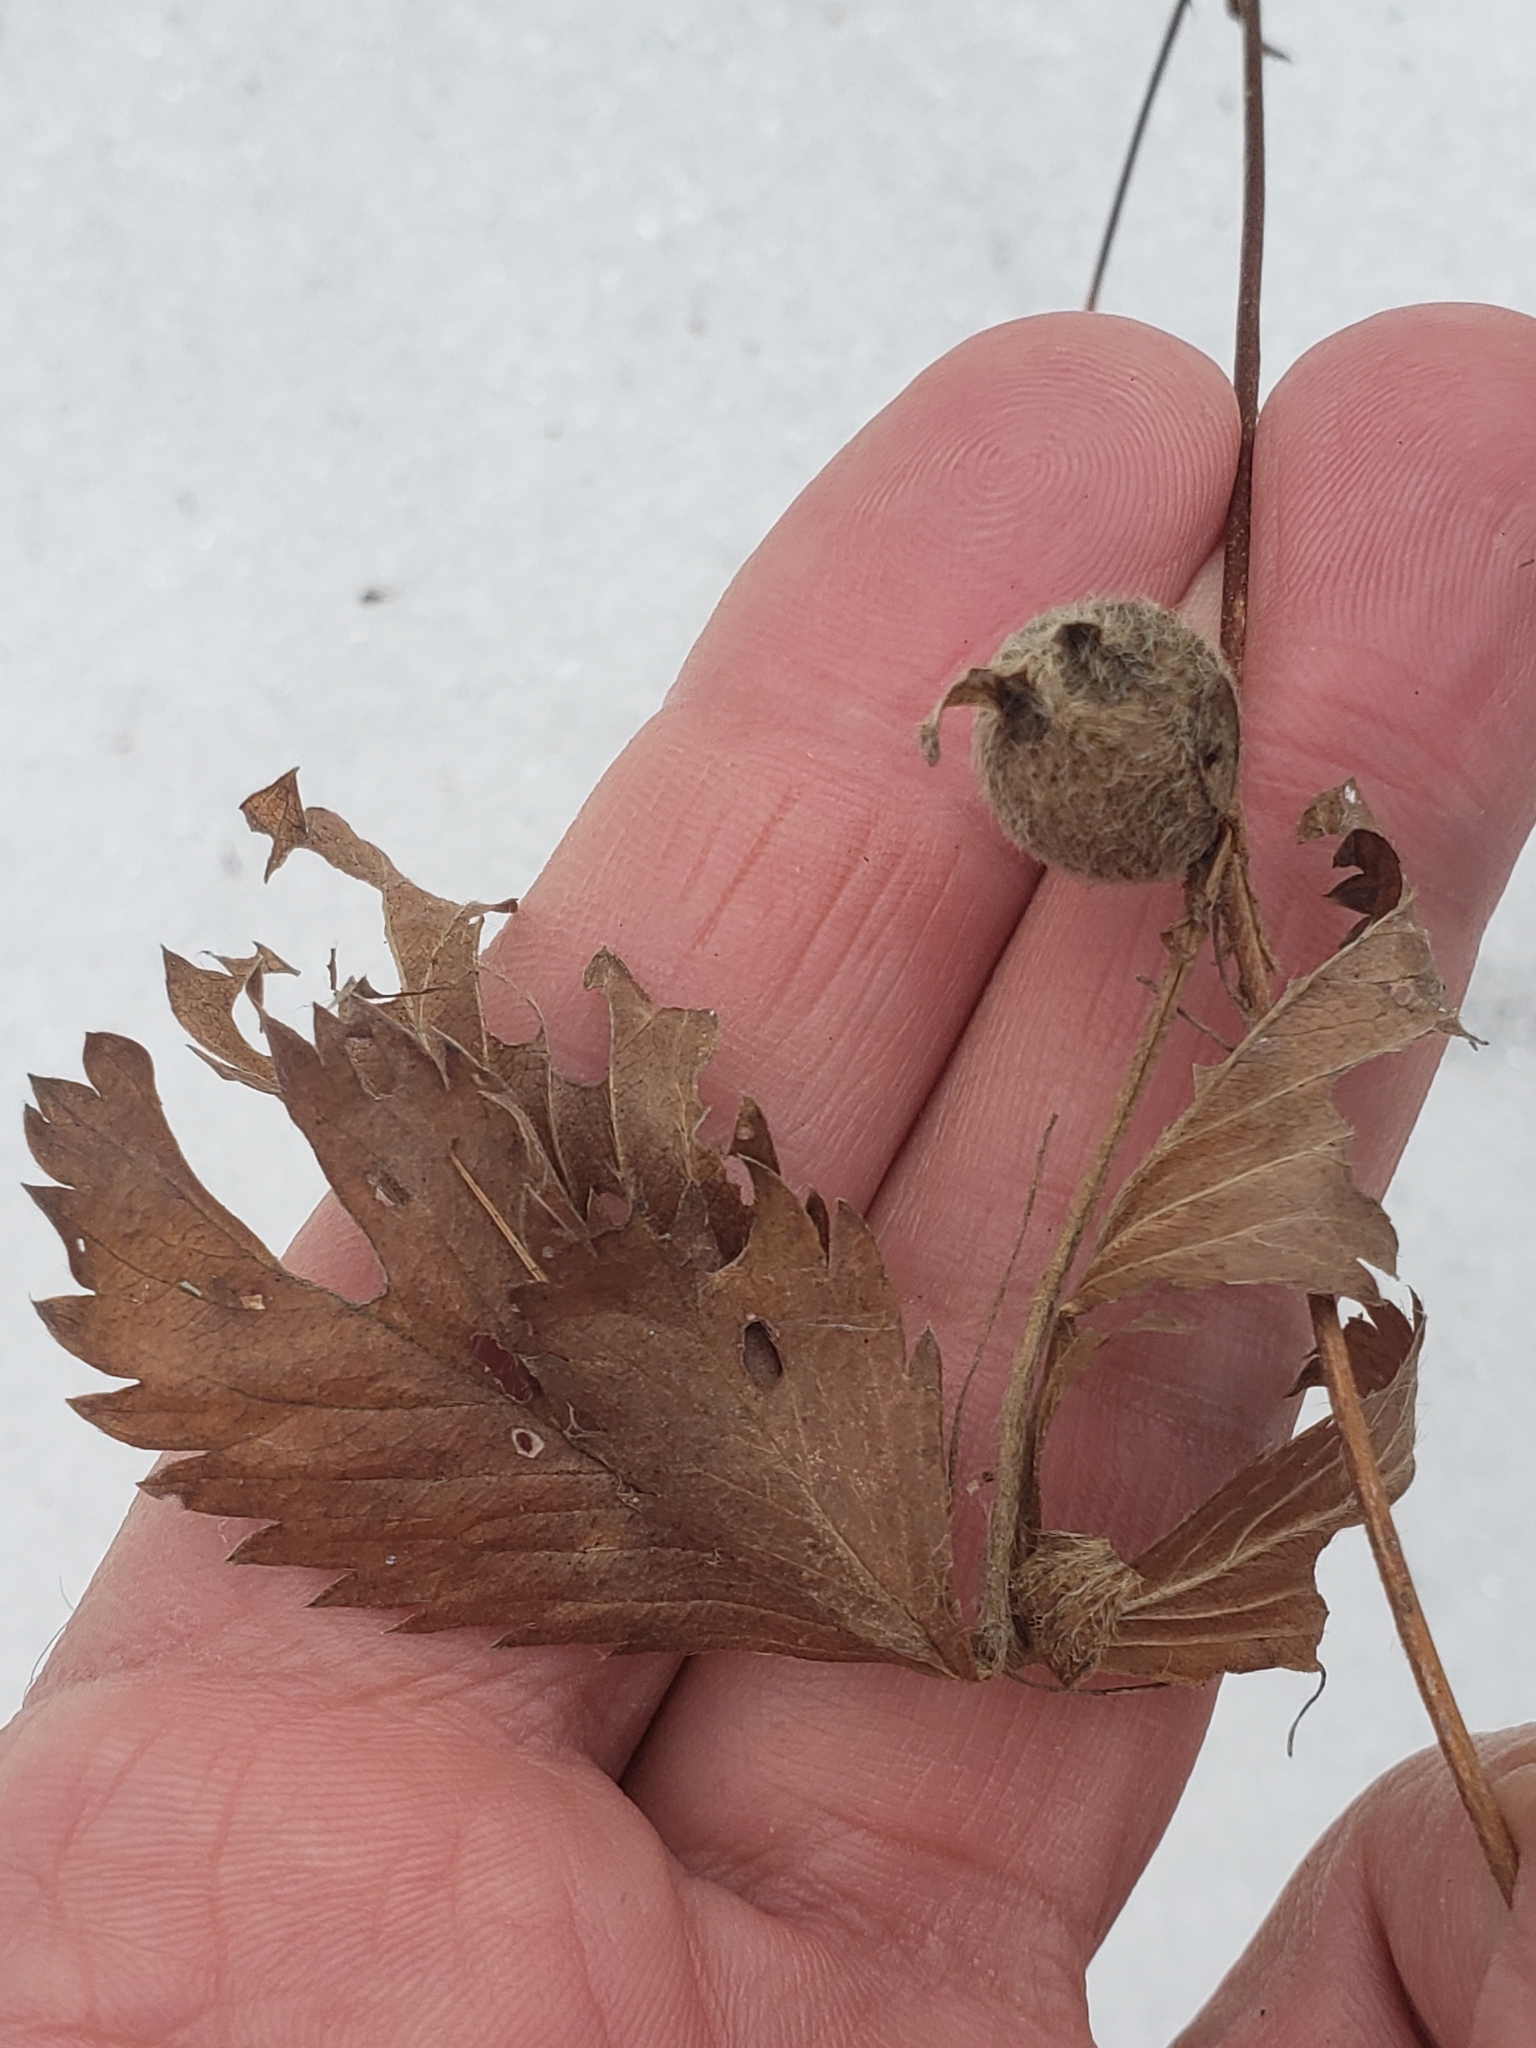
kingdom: Animalia
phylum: Arthropoda
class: Insecta
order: Hymenoptera
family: Cynipidae
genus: Diastrophus
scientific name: Diastrophus potentillae
